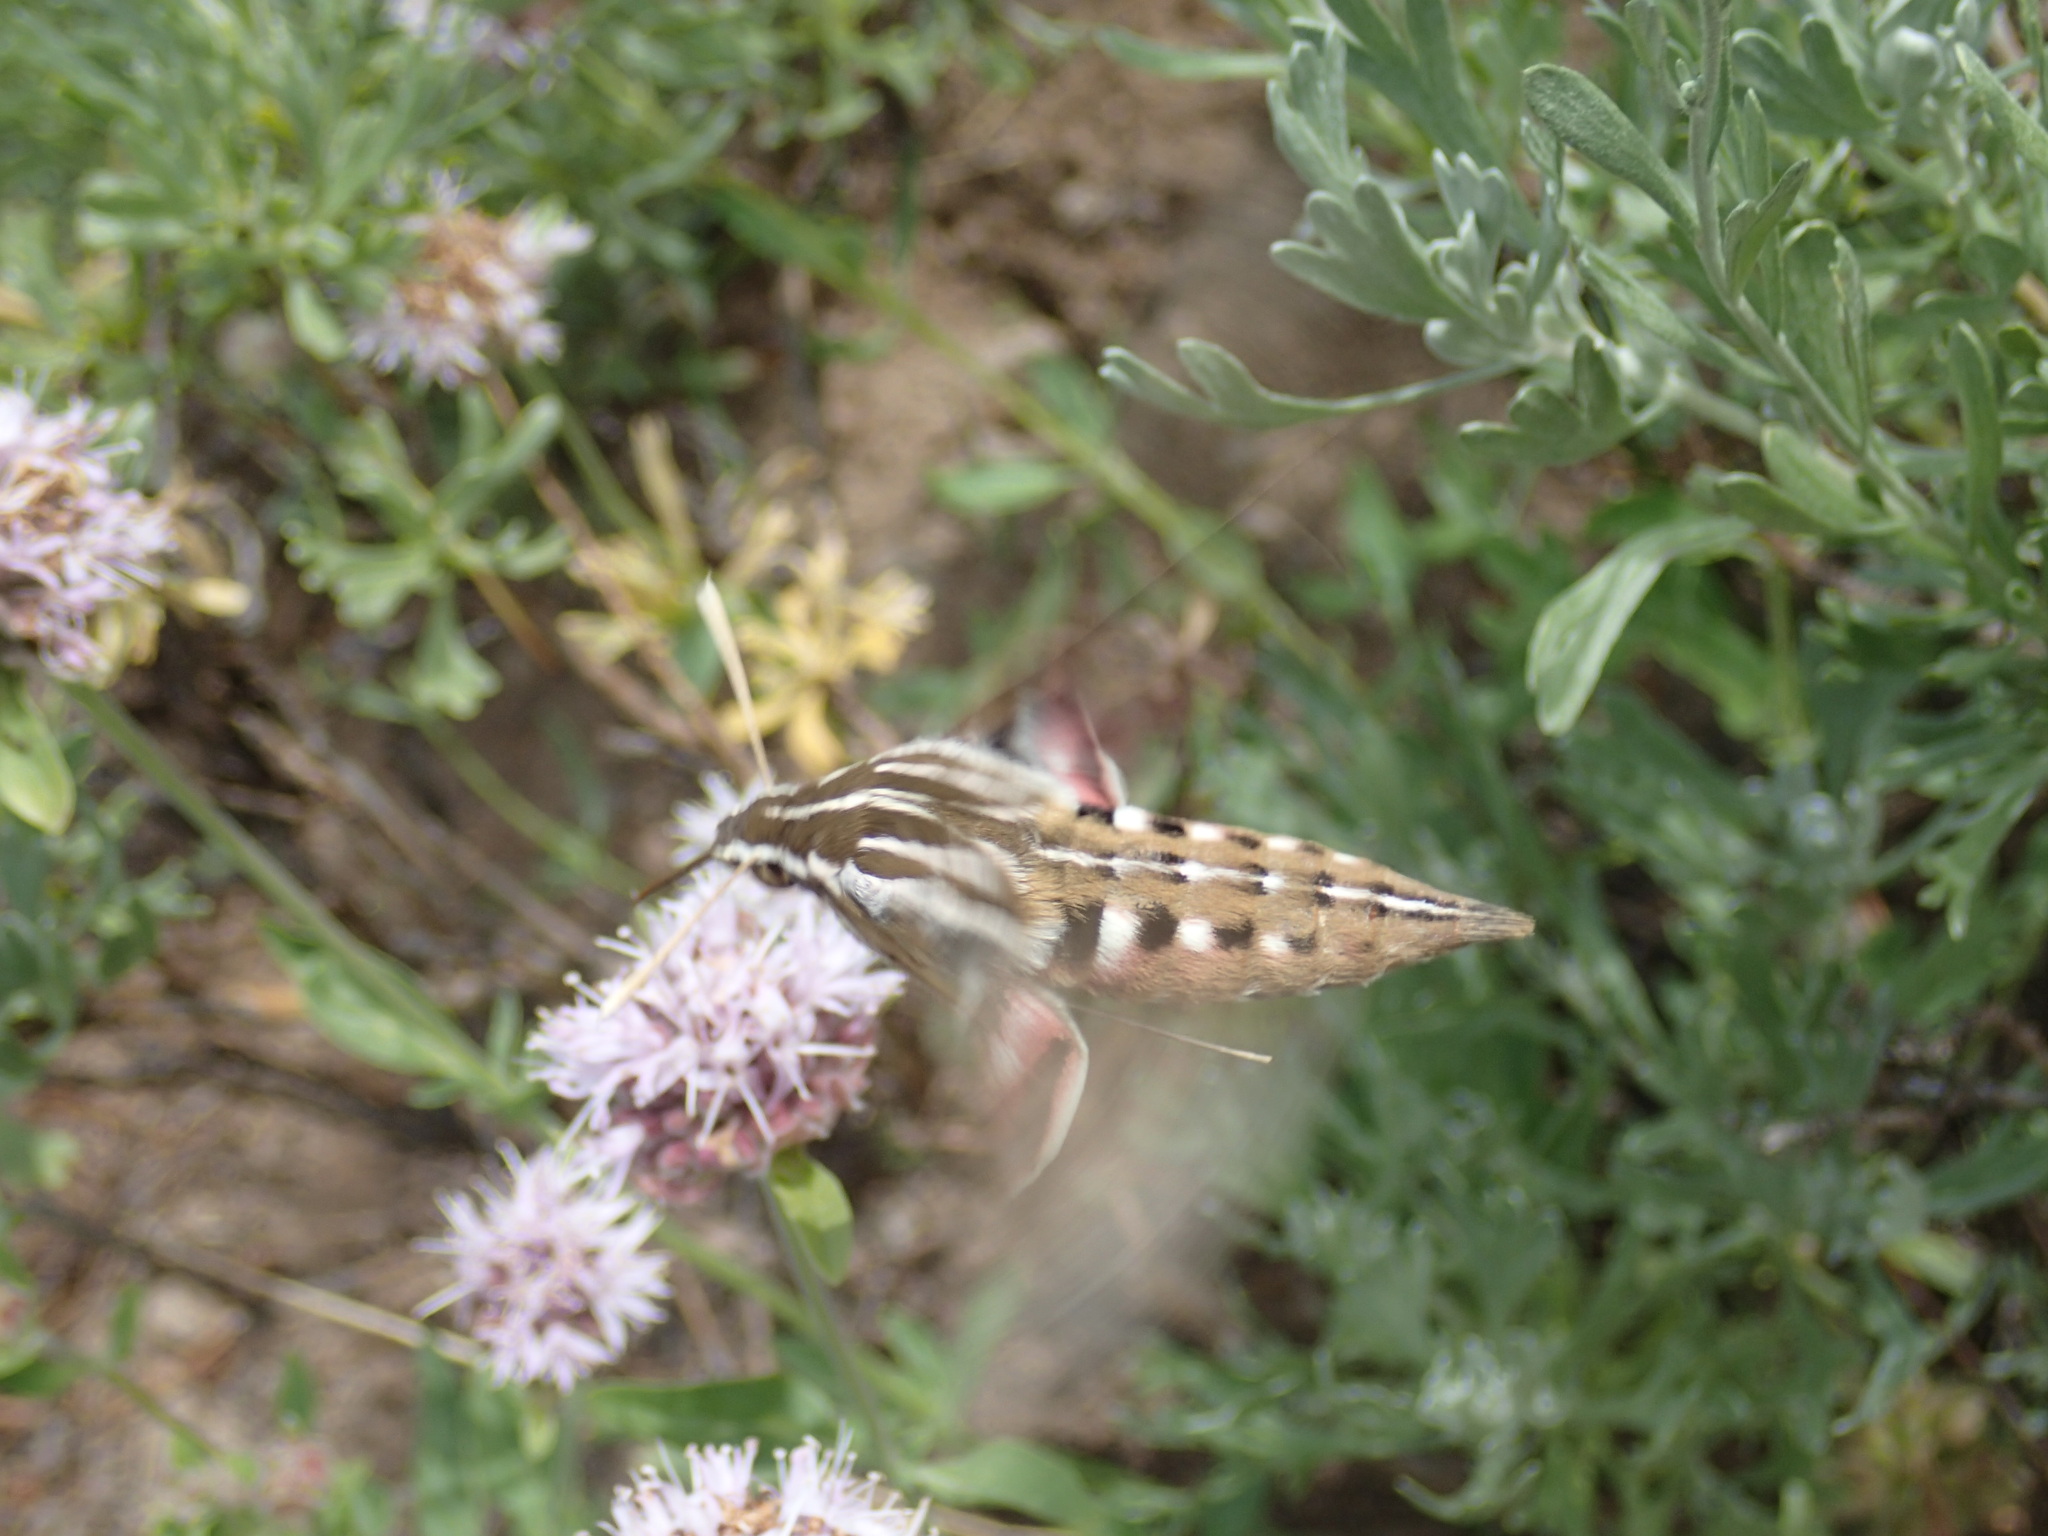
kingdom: Animalia
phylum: Arthropoda
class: Insecta
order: Lepidoptera
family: Sphingidae
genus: Hyles
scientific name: Hyles lineata
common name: White-lined sphinx
